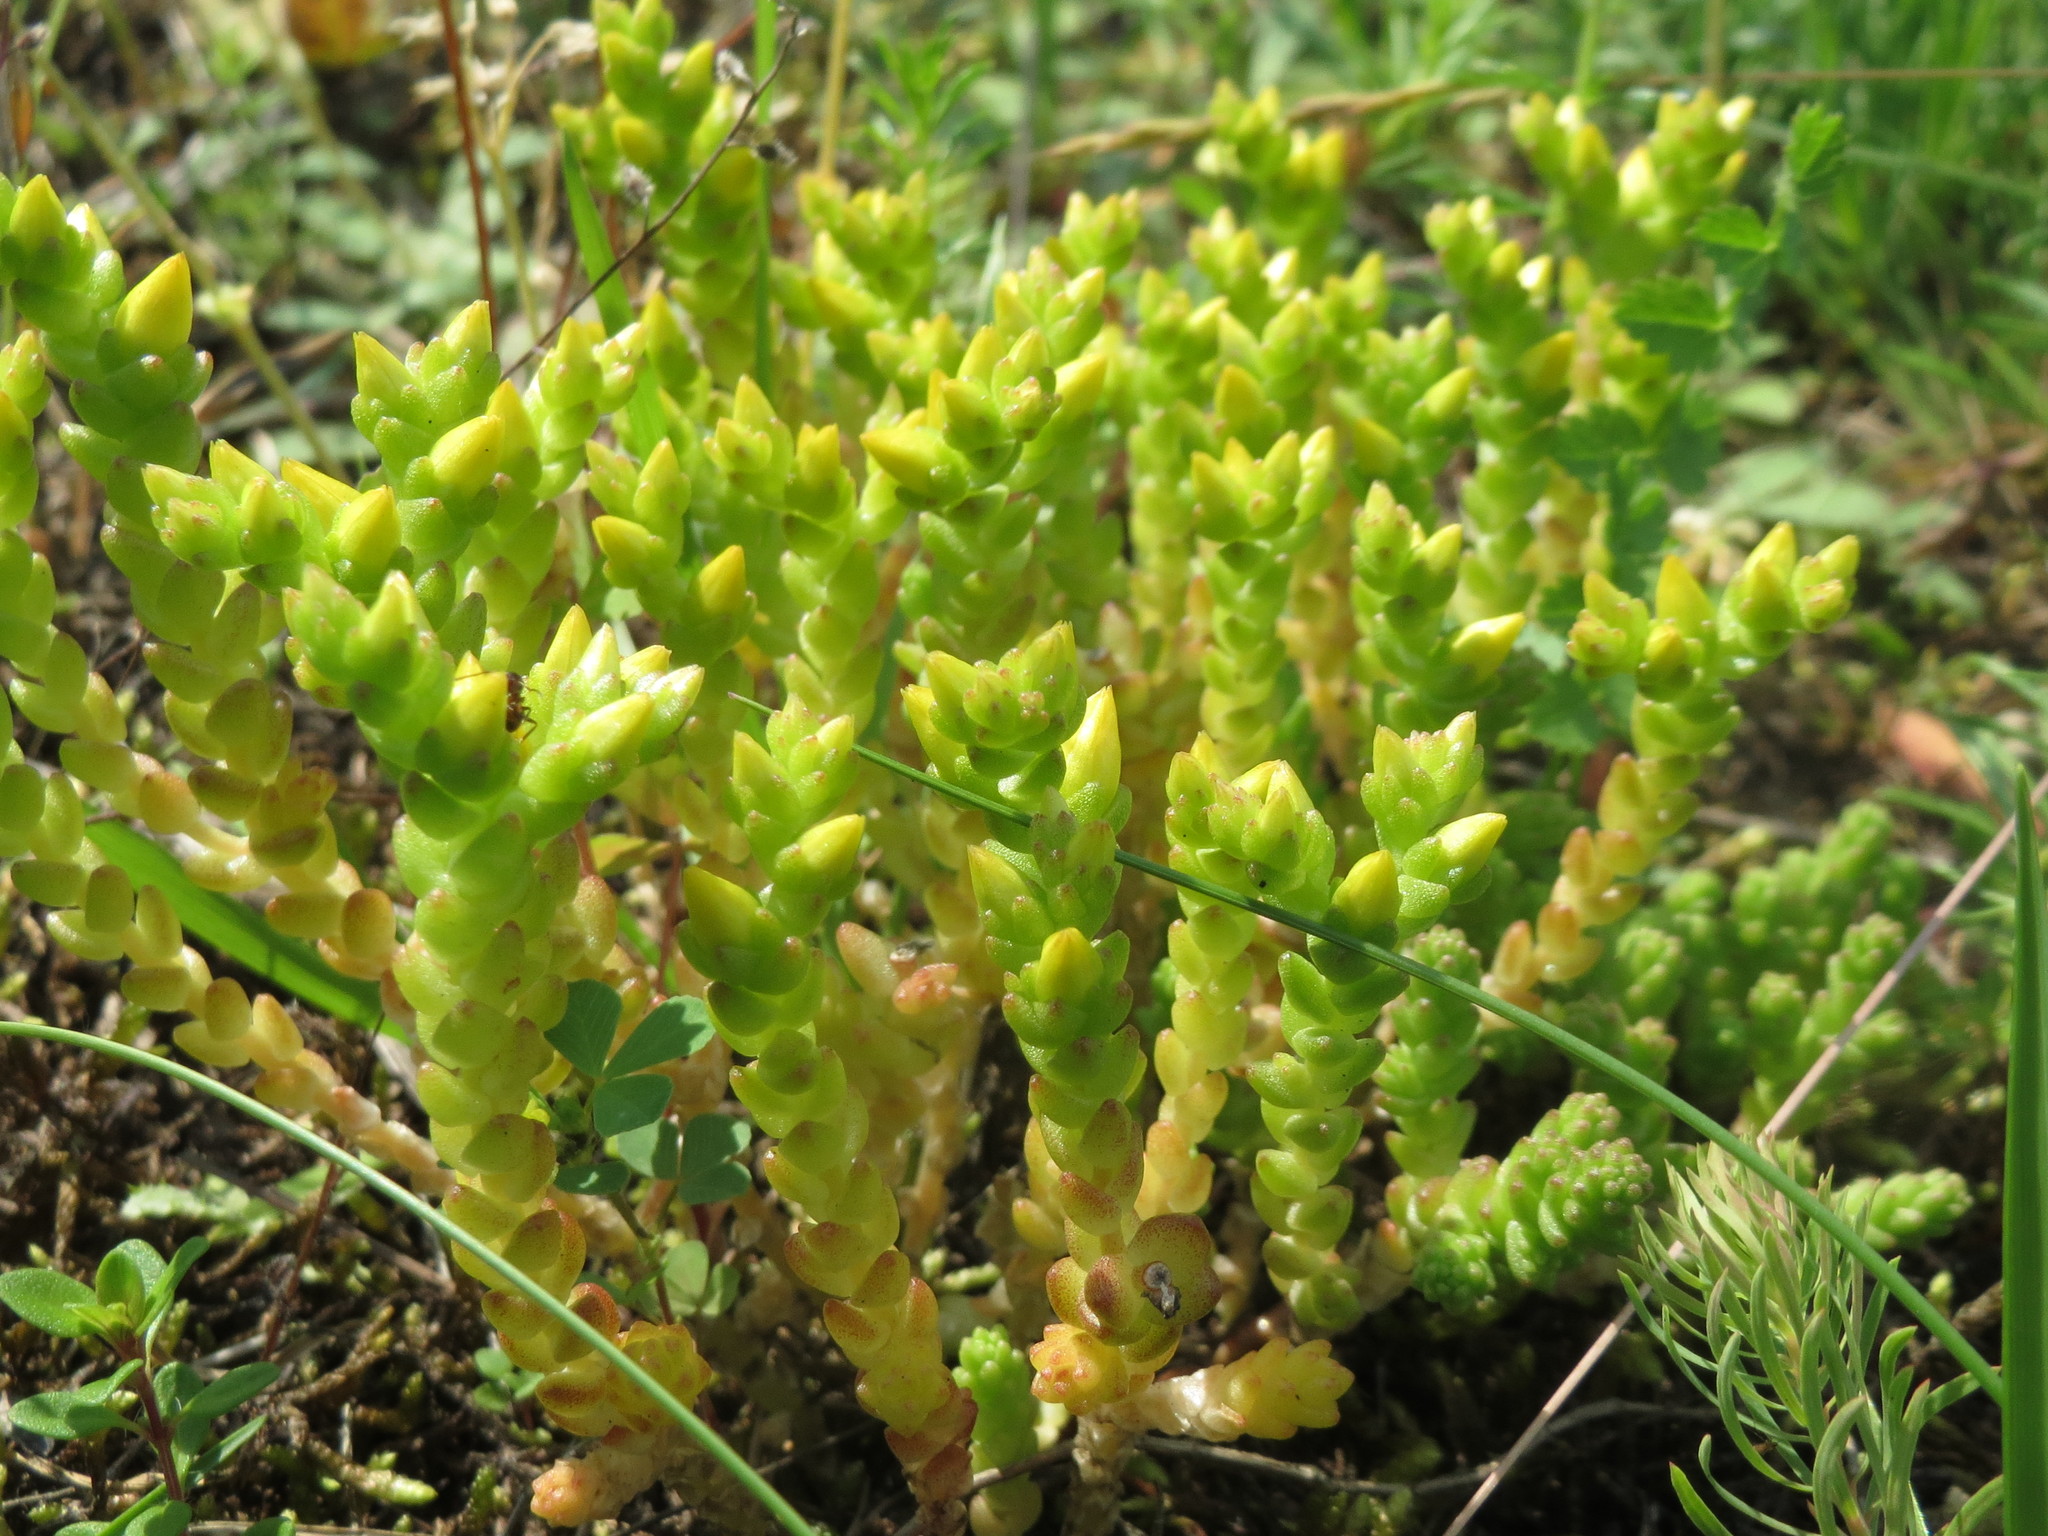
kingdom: Plantae
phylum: Tracheophyta
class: Magnoliopsida
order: Saxifragales
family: Crassulaceae
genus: Sedum
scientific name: Sedum acre
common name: Biting stonecrop
